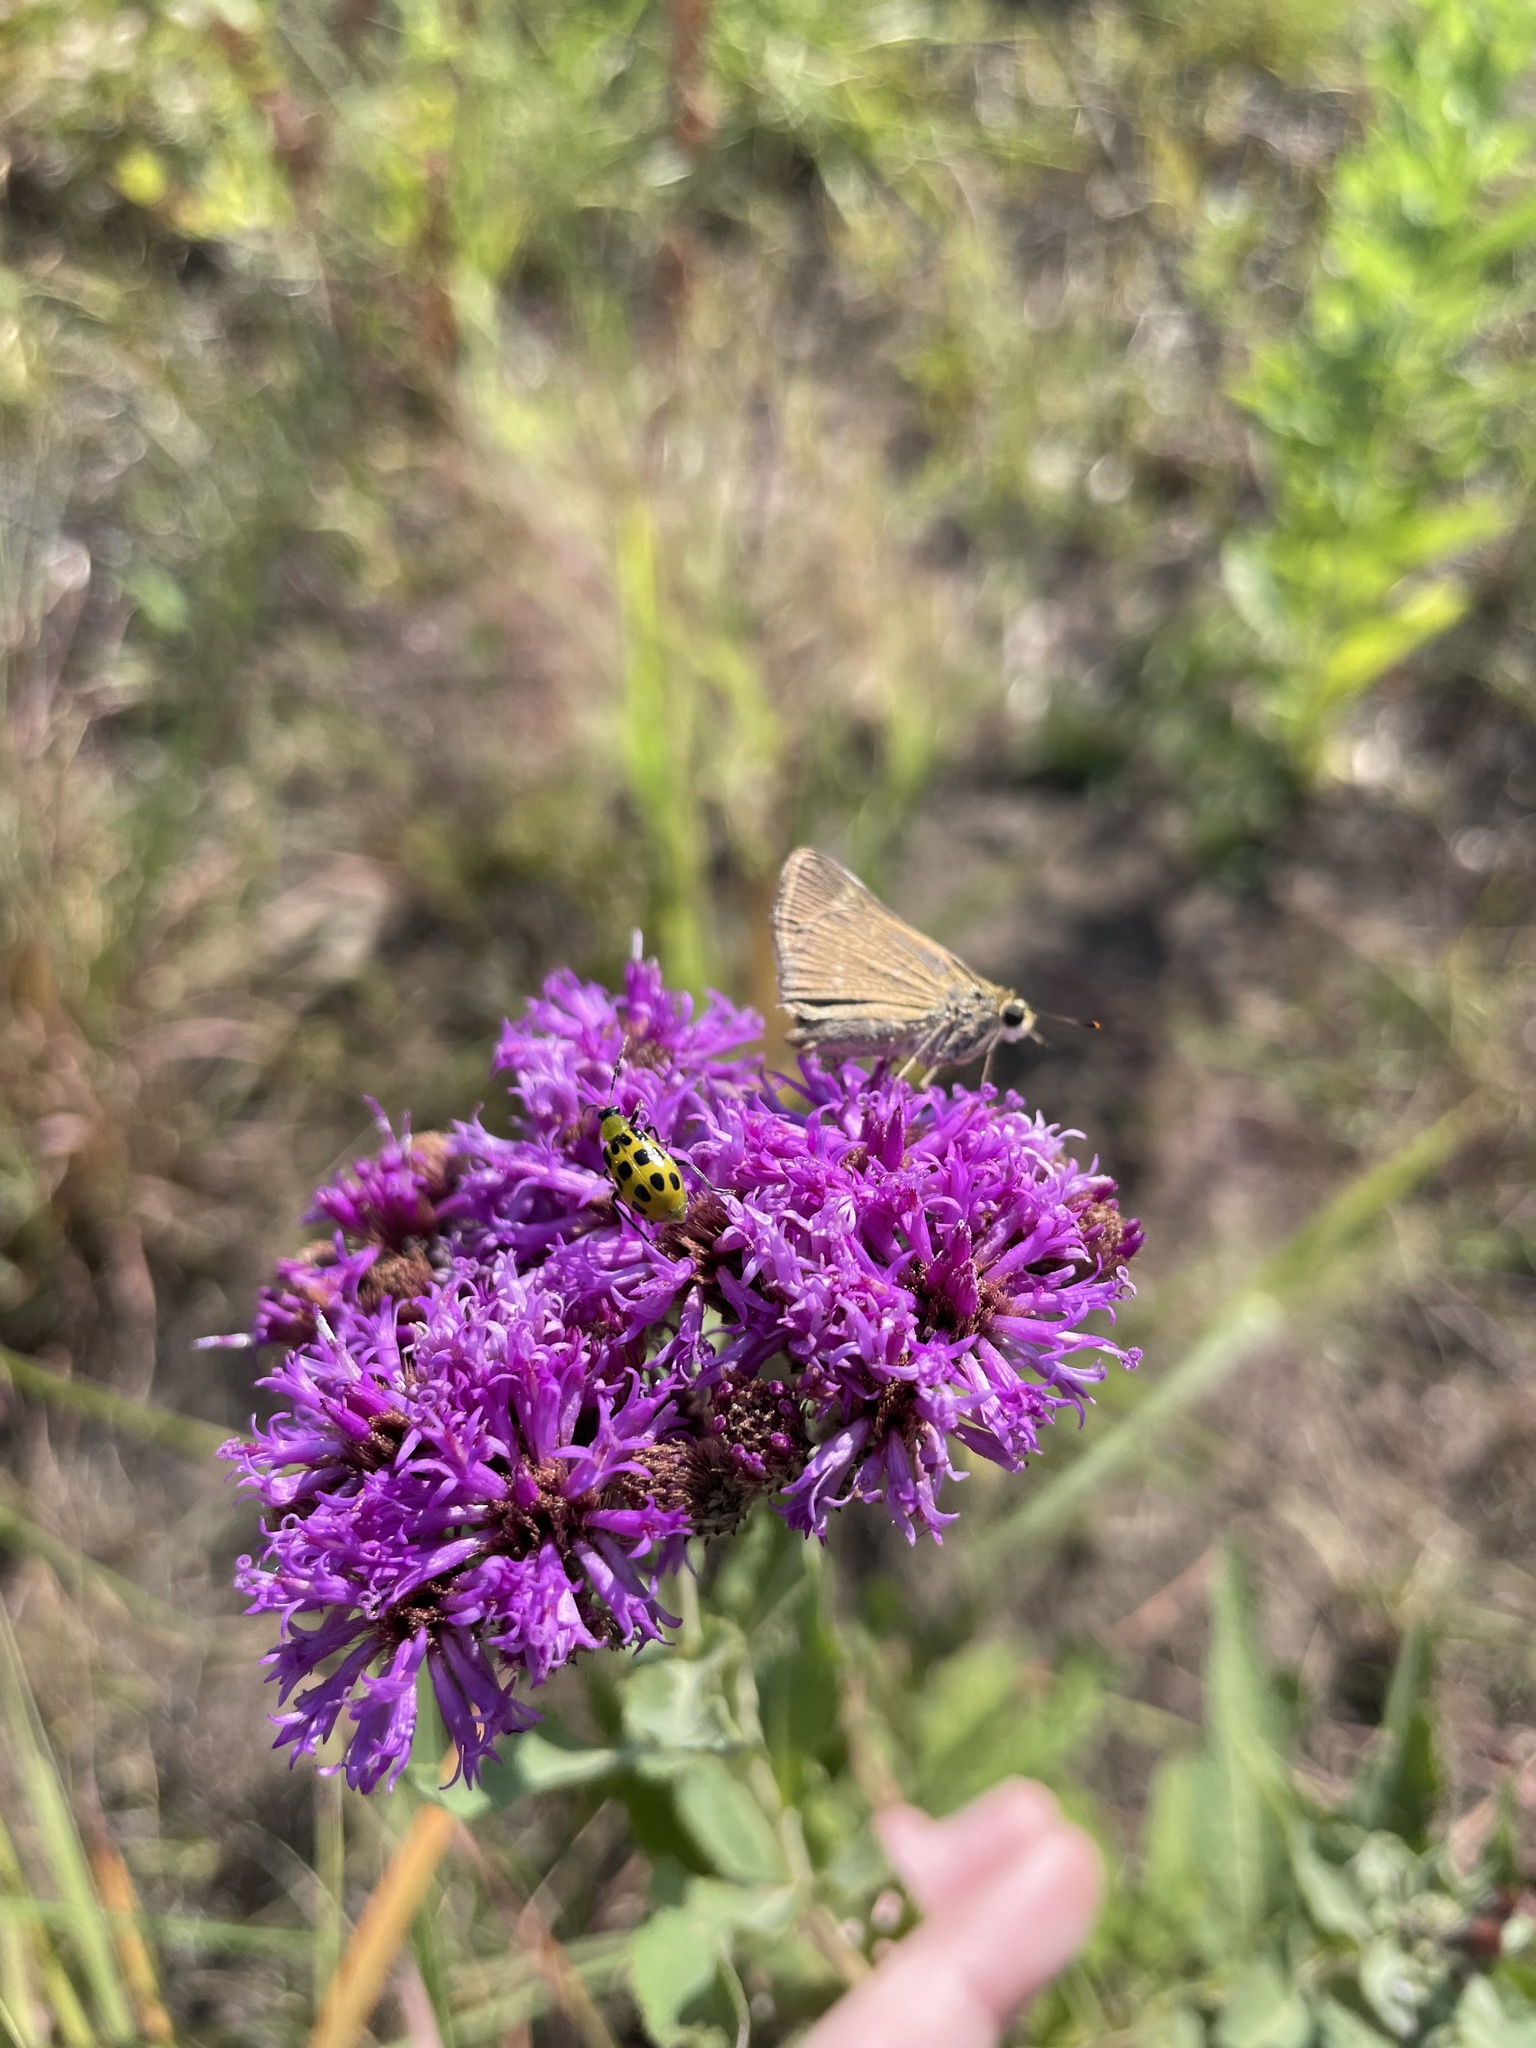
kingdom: Animalia
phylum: Arthropoda
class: Insecta
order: Lepidoptera
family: Hesperiidae
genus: Euphyes
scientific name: Euphyes vestris
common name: Dun skipper
